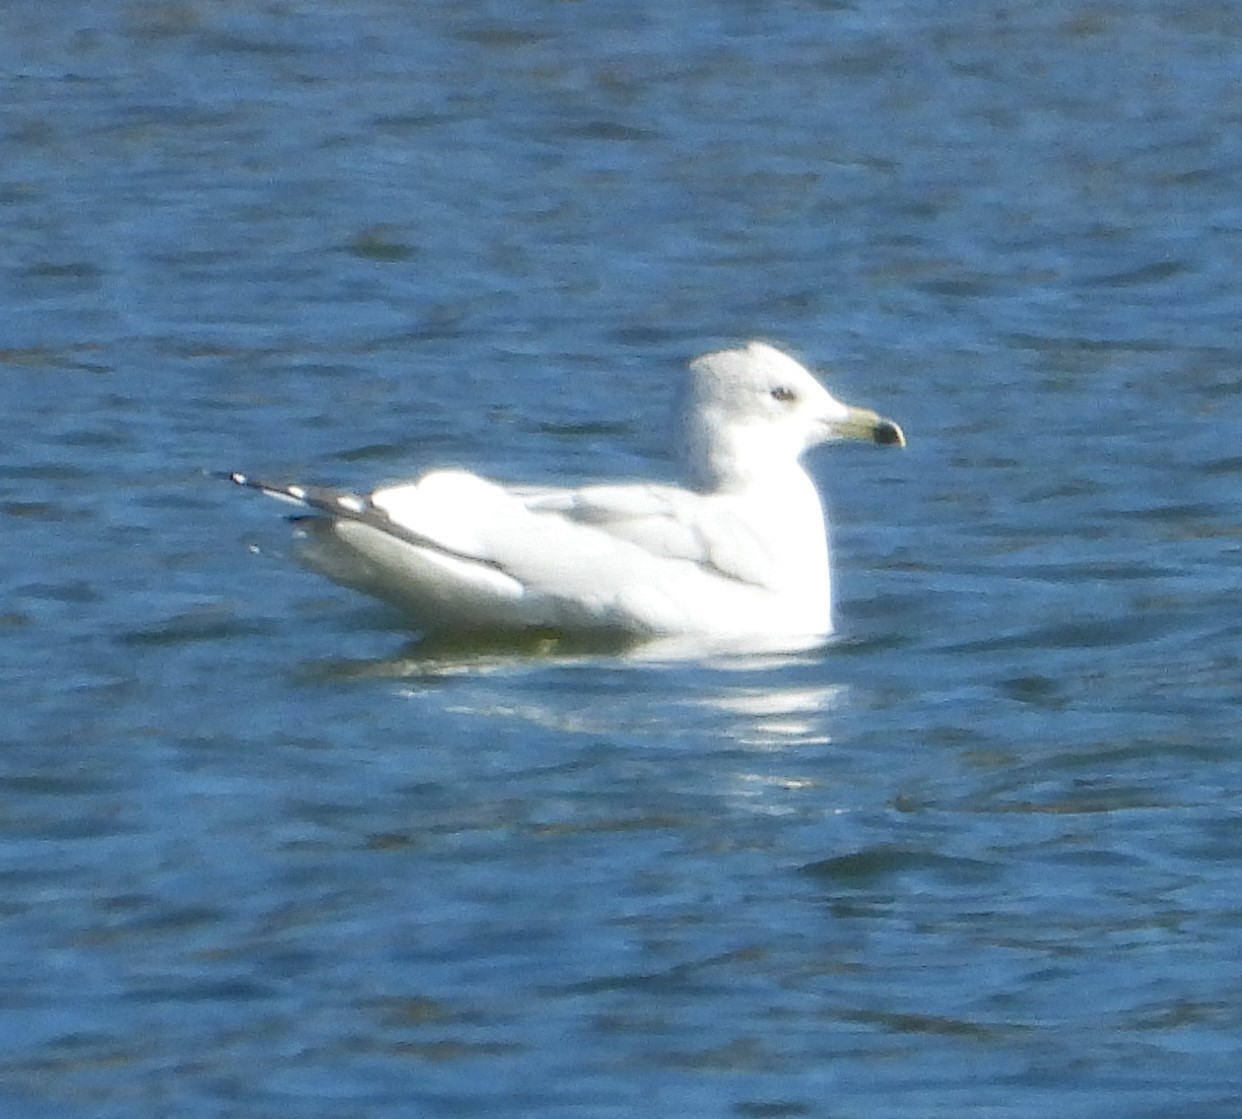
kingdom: Animalia
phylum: Chordata
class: Aves
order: Charadriiformes
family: Laridae
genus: Larus
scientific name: Larus delawarensis
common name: Ring-billed gull
